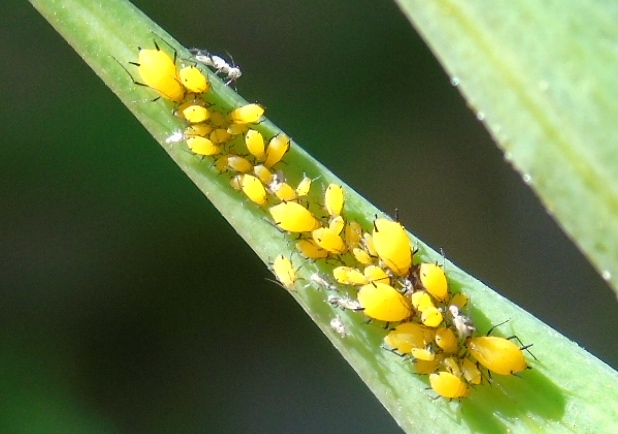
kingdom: Animalia
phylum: Arthropoda
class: Insecta
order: Hemiptera
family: Aphididae
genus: Aphis
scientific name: Aphis nerii
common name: Oleander aphid
